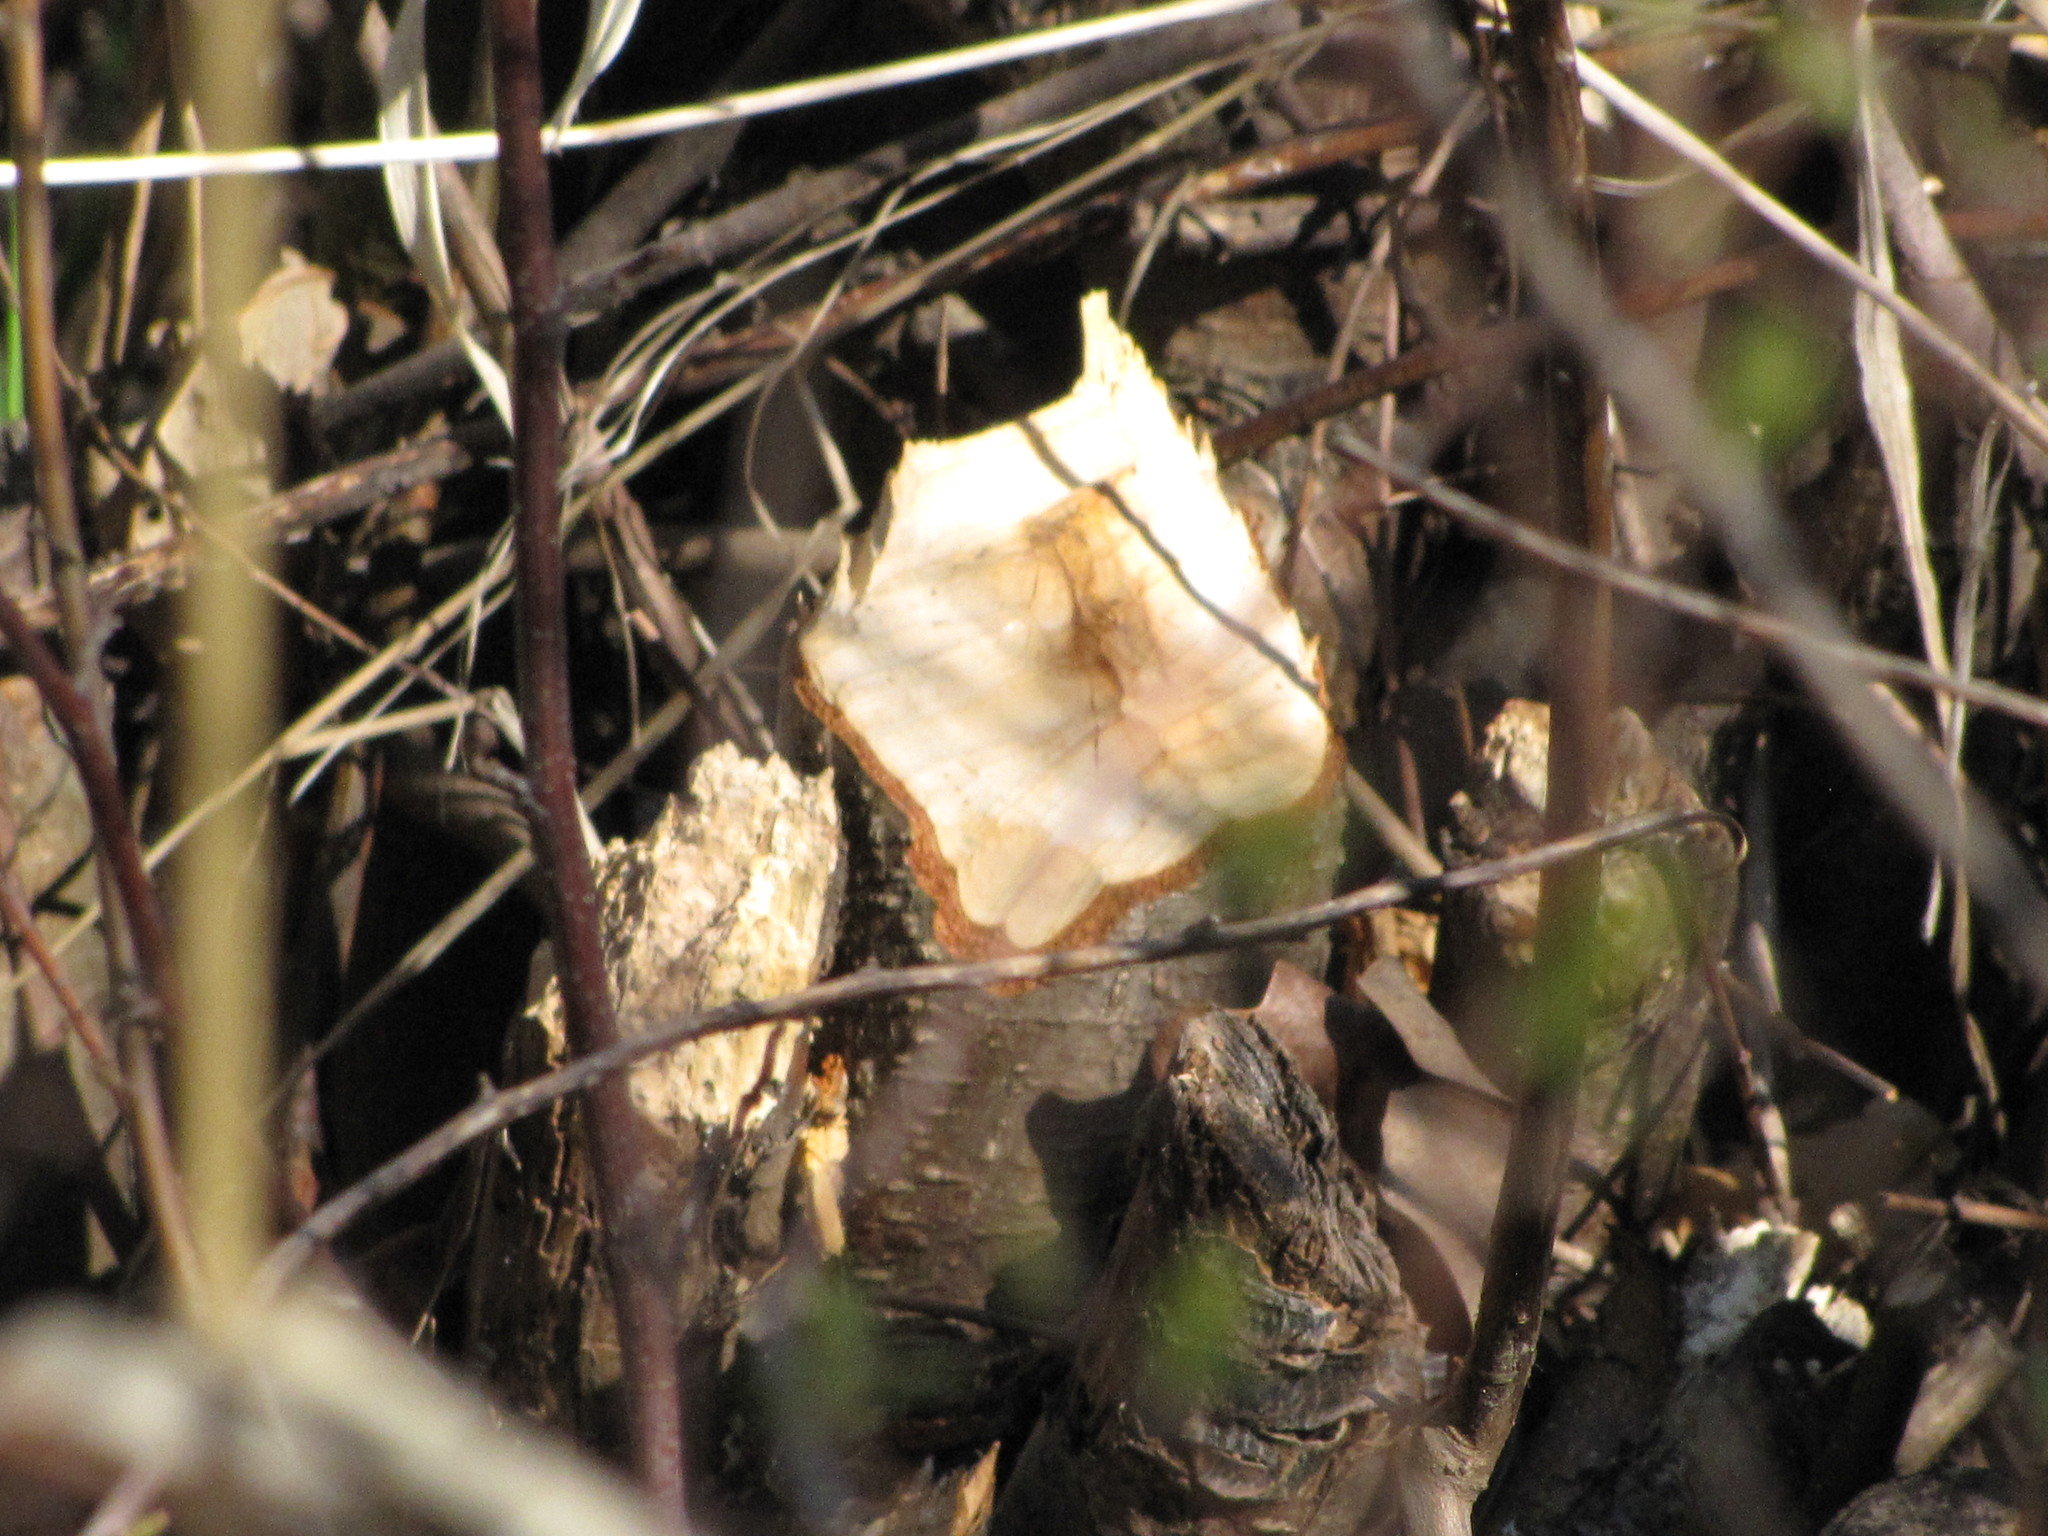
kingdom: Animalia
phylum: Chordata
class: Mammalia
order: Rodentia
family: Castoridae
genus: Castor
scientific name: Castor canadensis
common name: American beaver
